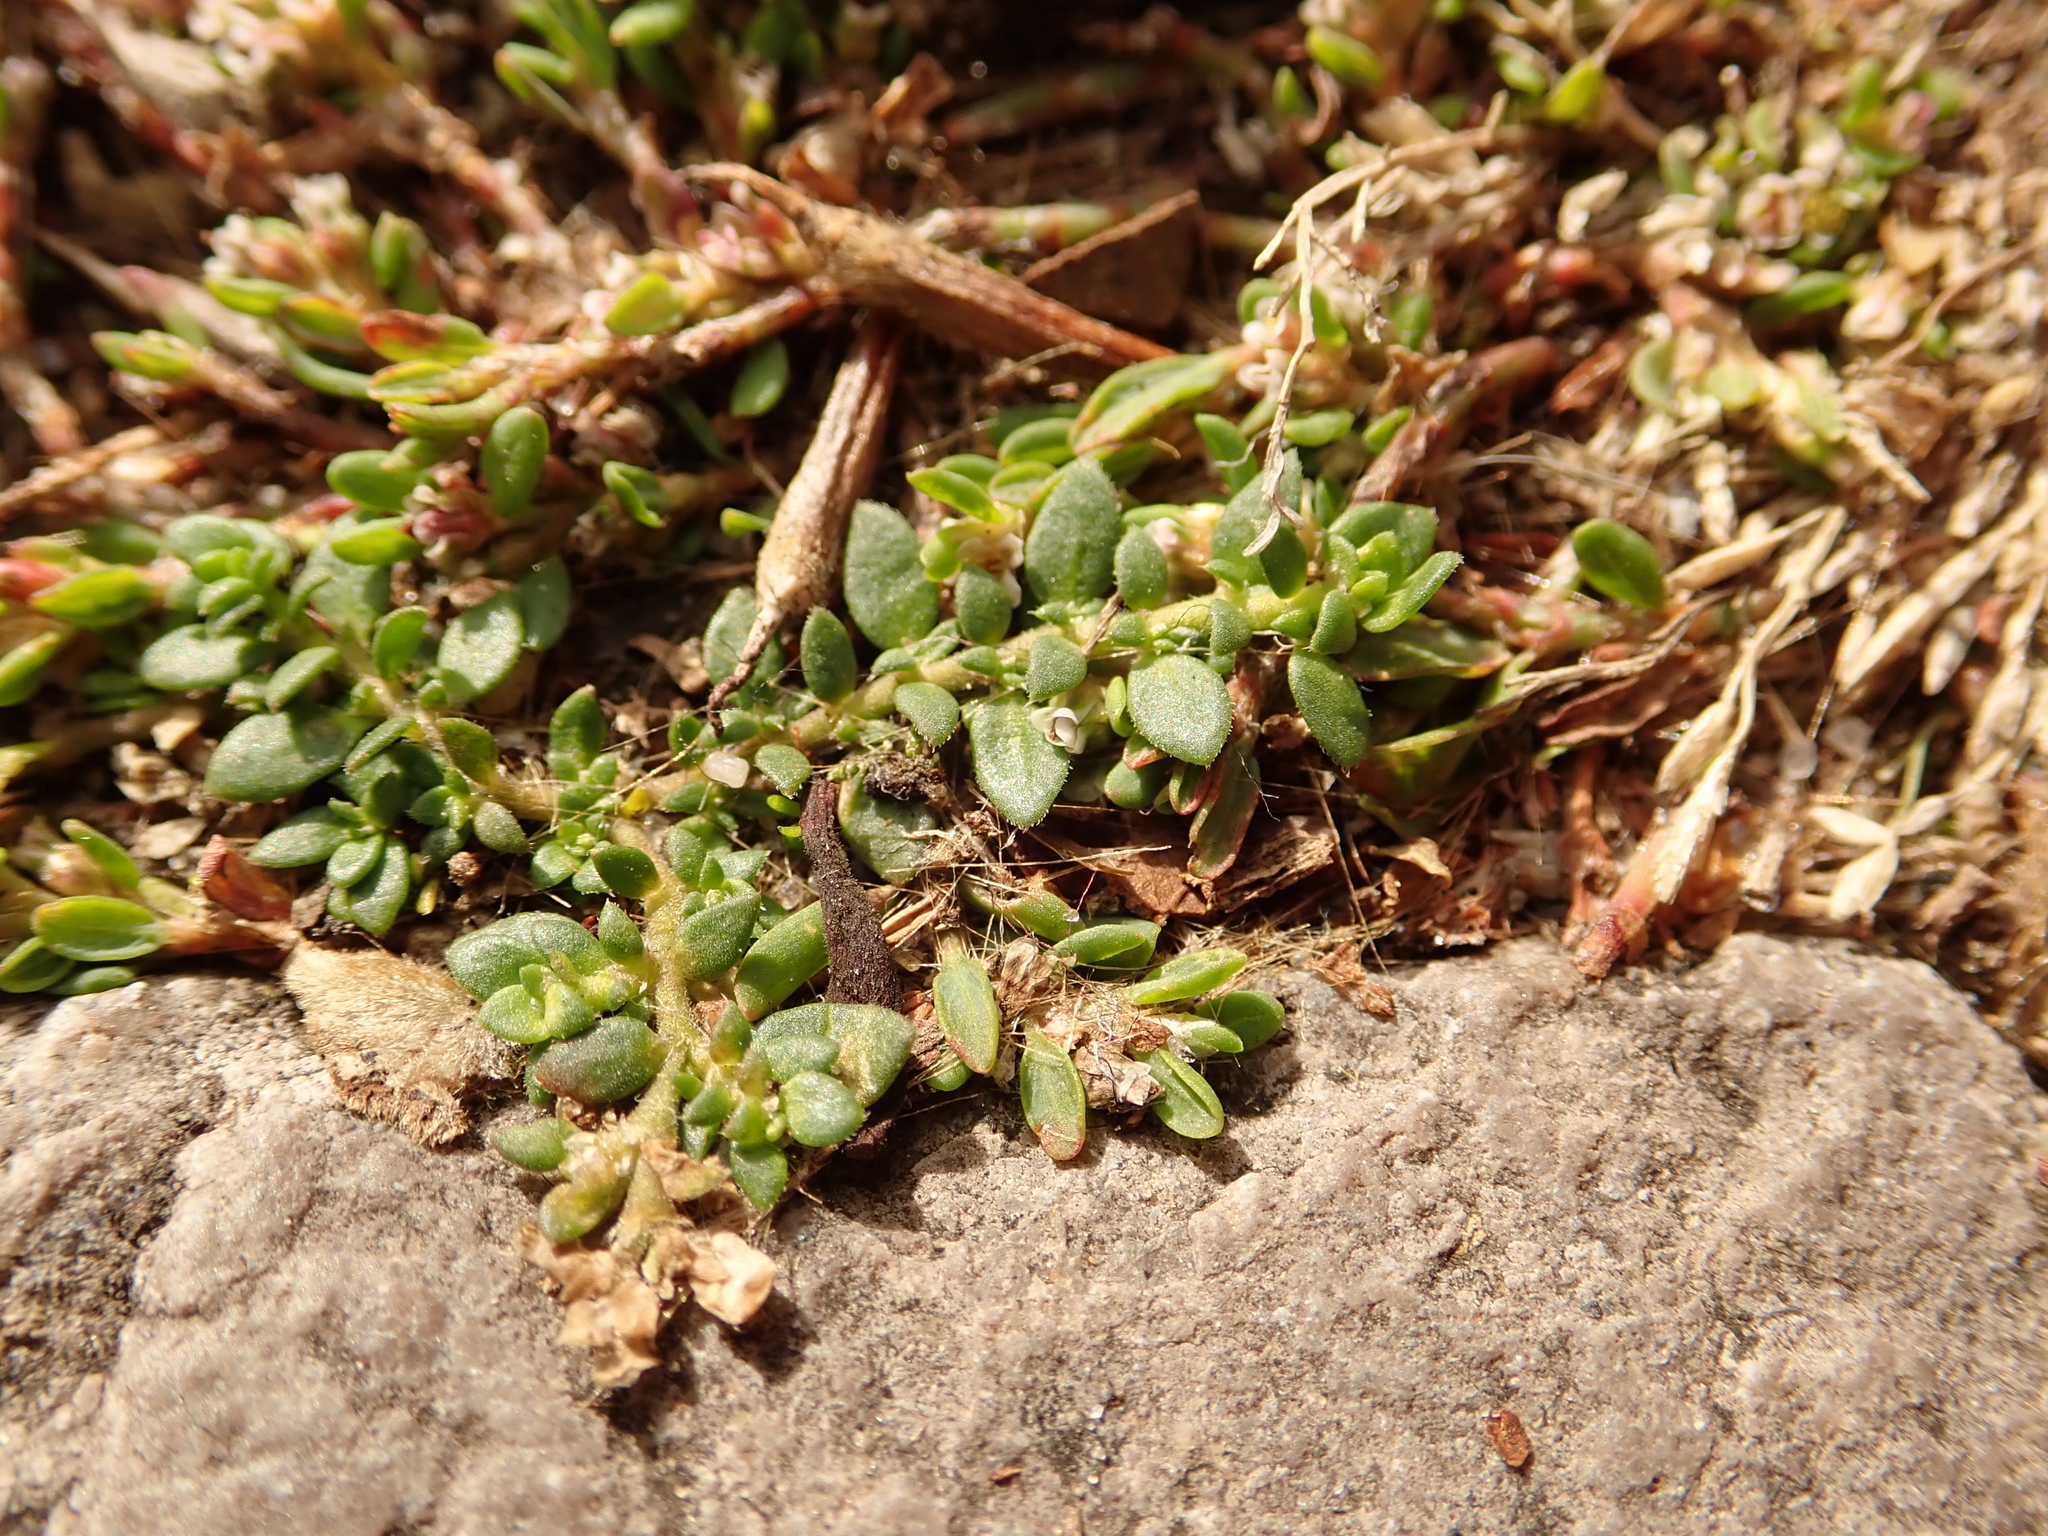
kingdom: Plantae
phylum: Tracheophyta
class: Magnoliopsida
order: Caryophyllales
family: Caryophyllaceae
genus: Herniaria
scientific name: Herniaria glabra
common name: Smooth rupturewort
